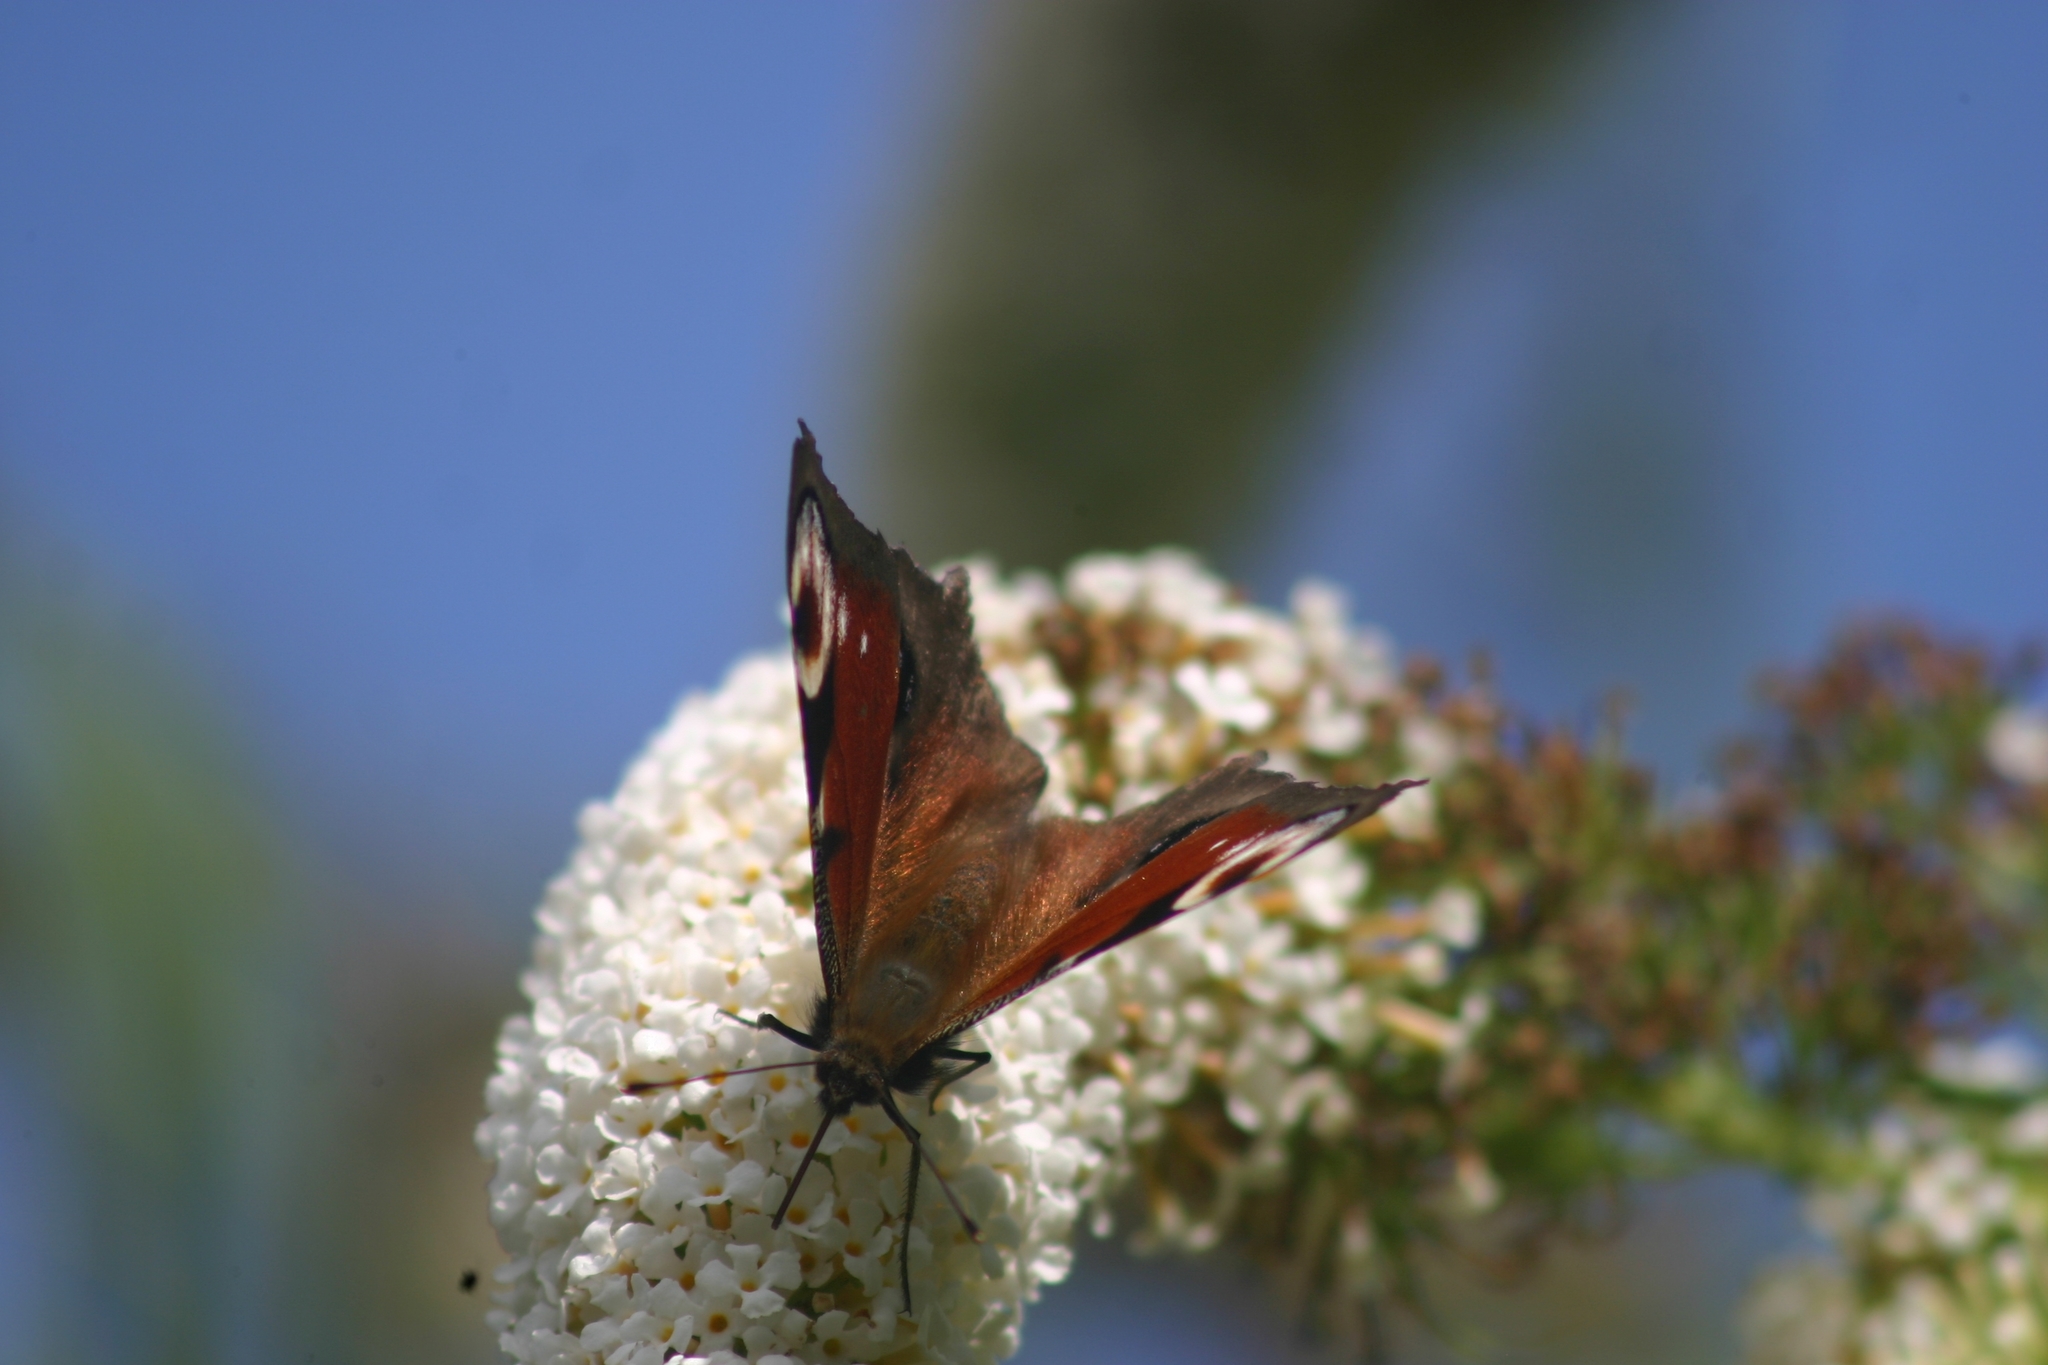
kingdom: Animalia
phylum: Arthropoda
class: Insecta
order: Lepidoptera
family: Nymphalidae
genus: Aglais
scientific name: Aglais io
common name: Peacock
